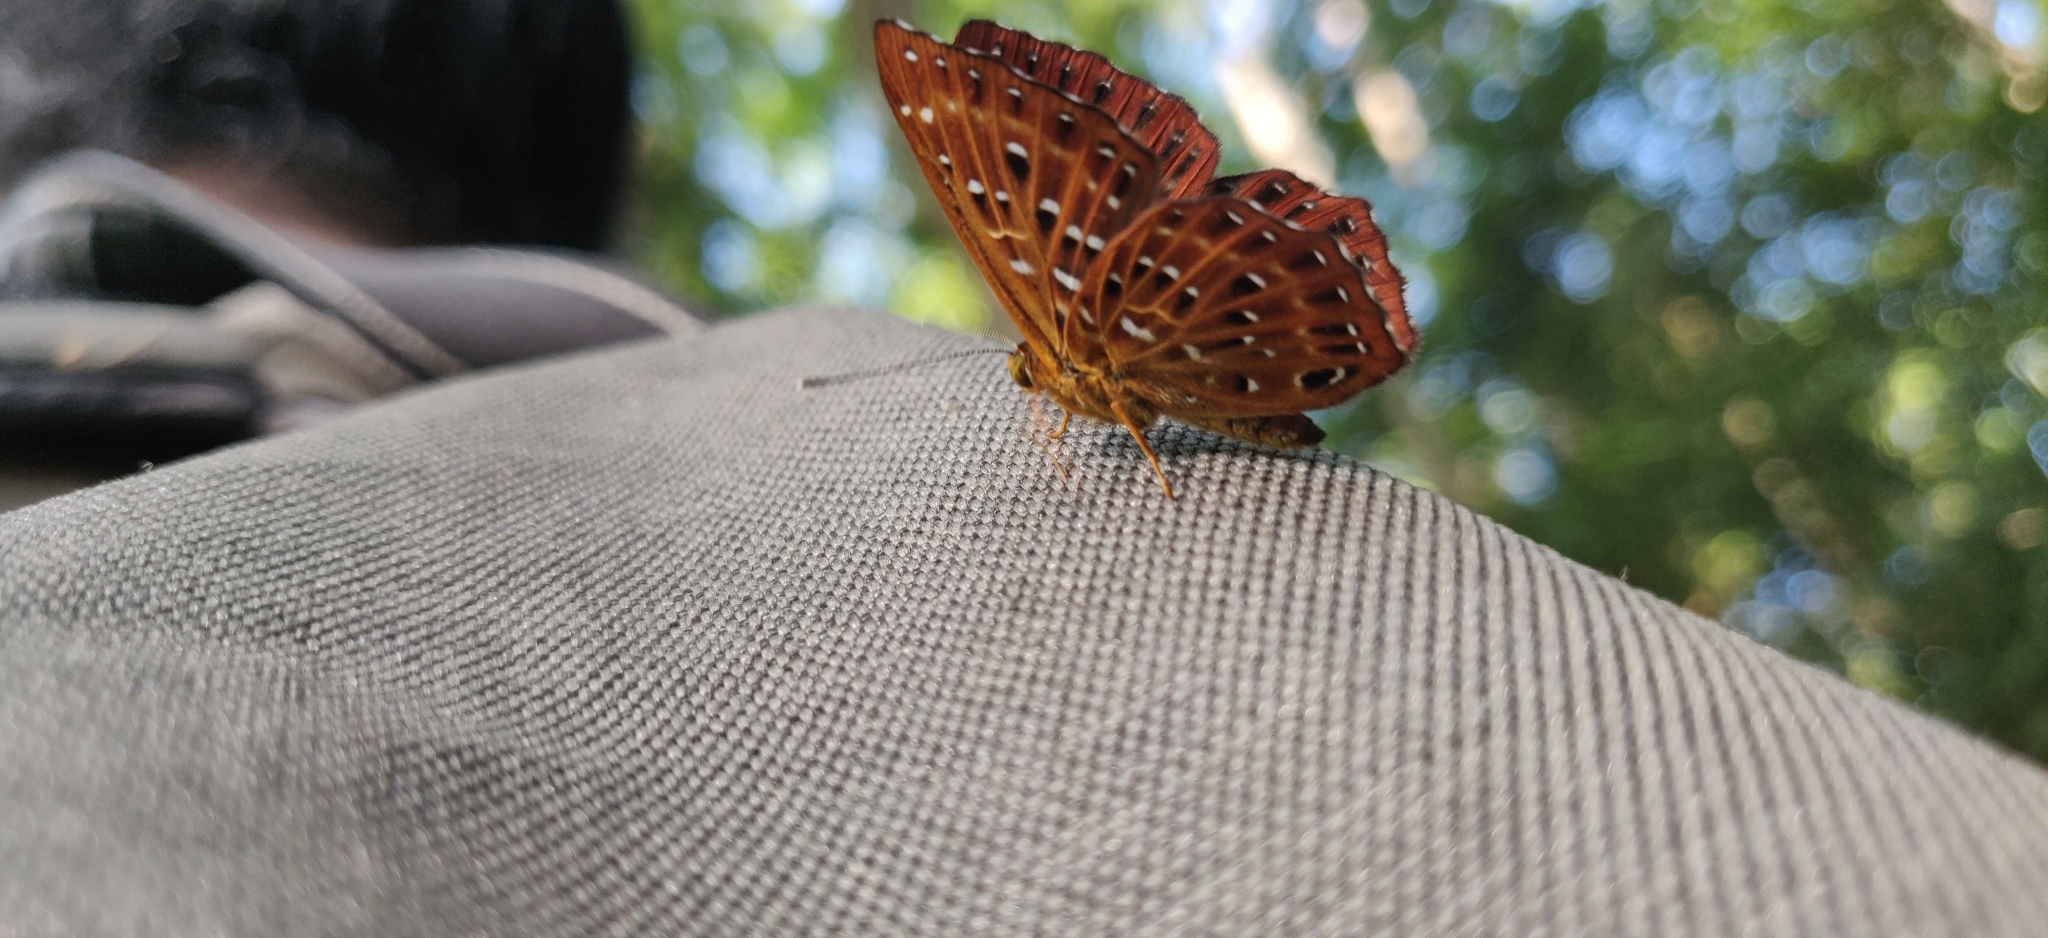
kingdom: Animalia
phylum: Arthropoda
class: Insecta
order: Lepidoptera
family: Riodinidae
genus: Zemeros
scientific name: Zemeros flegyas
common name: Punchinello
